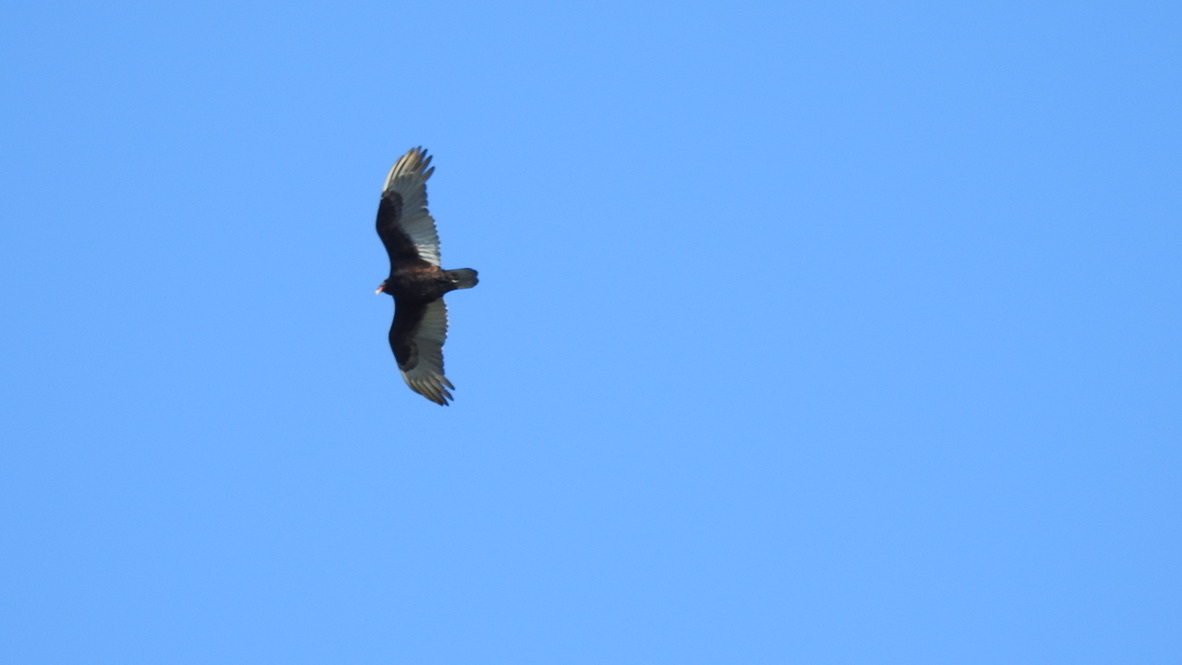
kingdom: Animalia
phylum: Chordata
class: Aves
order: Accipitriformes
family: Cathartidae
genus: Cathartes
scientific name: Cathartes aura
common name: Turkey vulture
